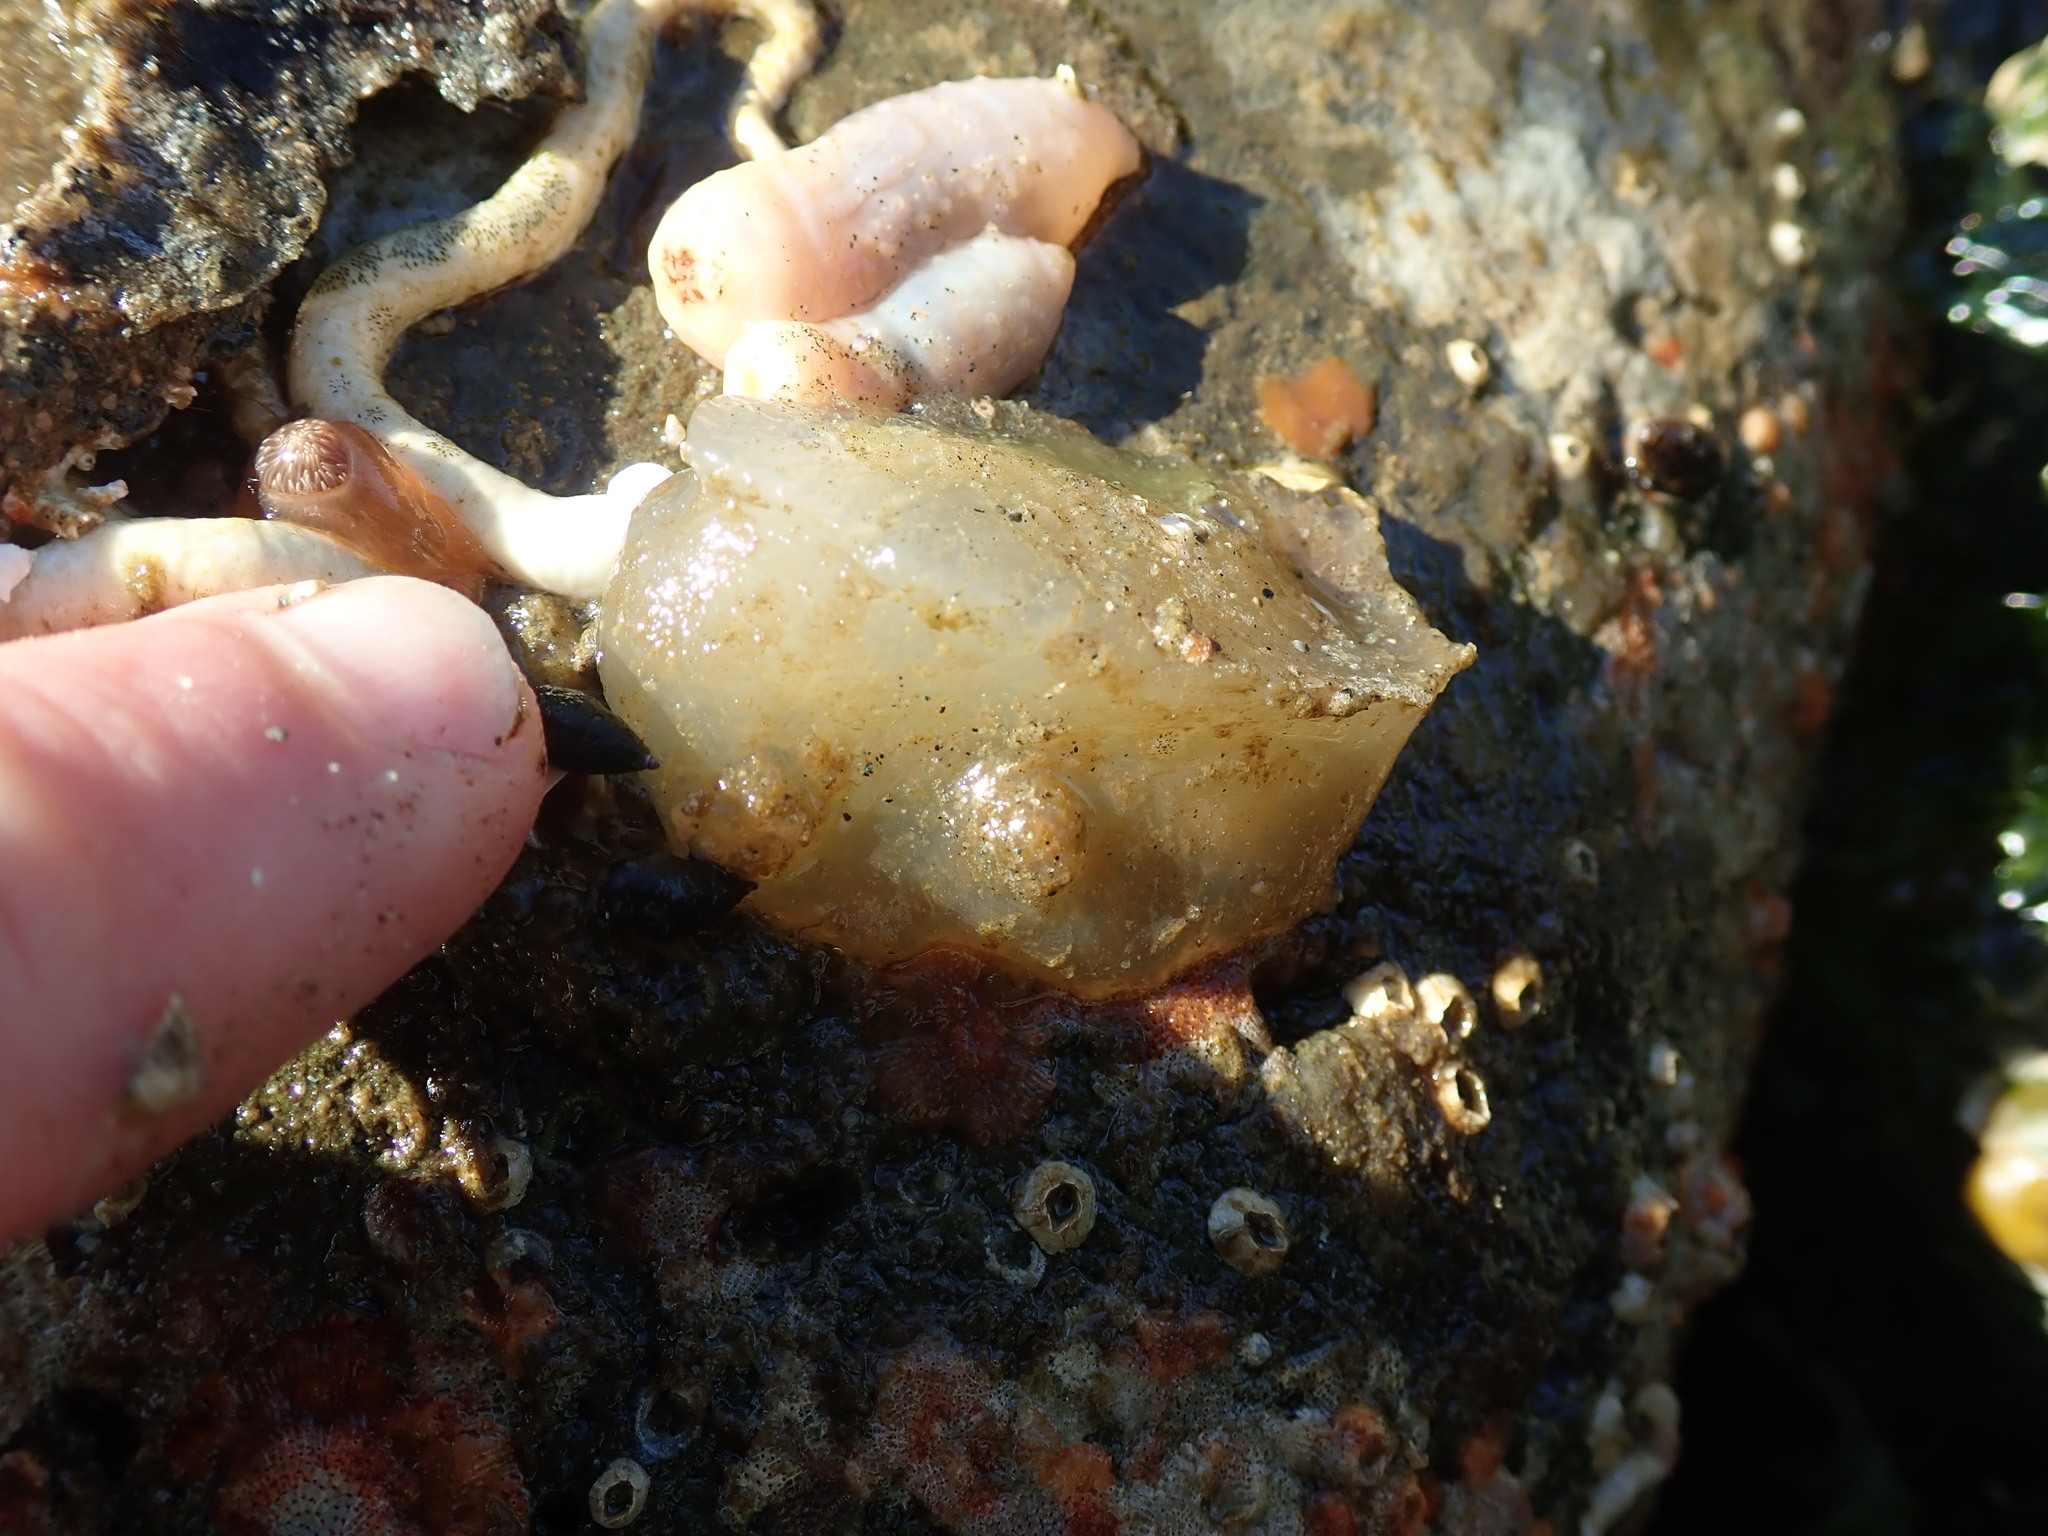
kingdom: Animalia
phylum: Chordata
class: Ascidiacea
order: Phlebobranchia
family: Ascidiidae
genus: Ascidia
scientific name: Ascidia columbiana
